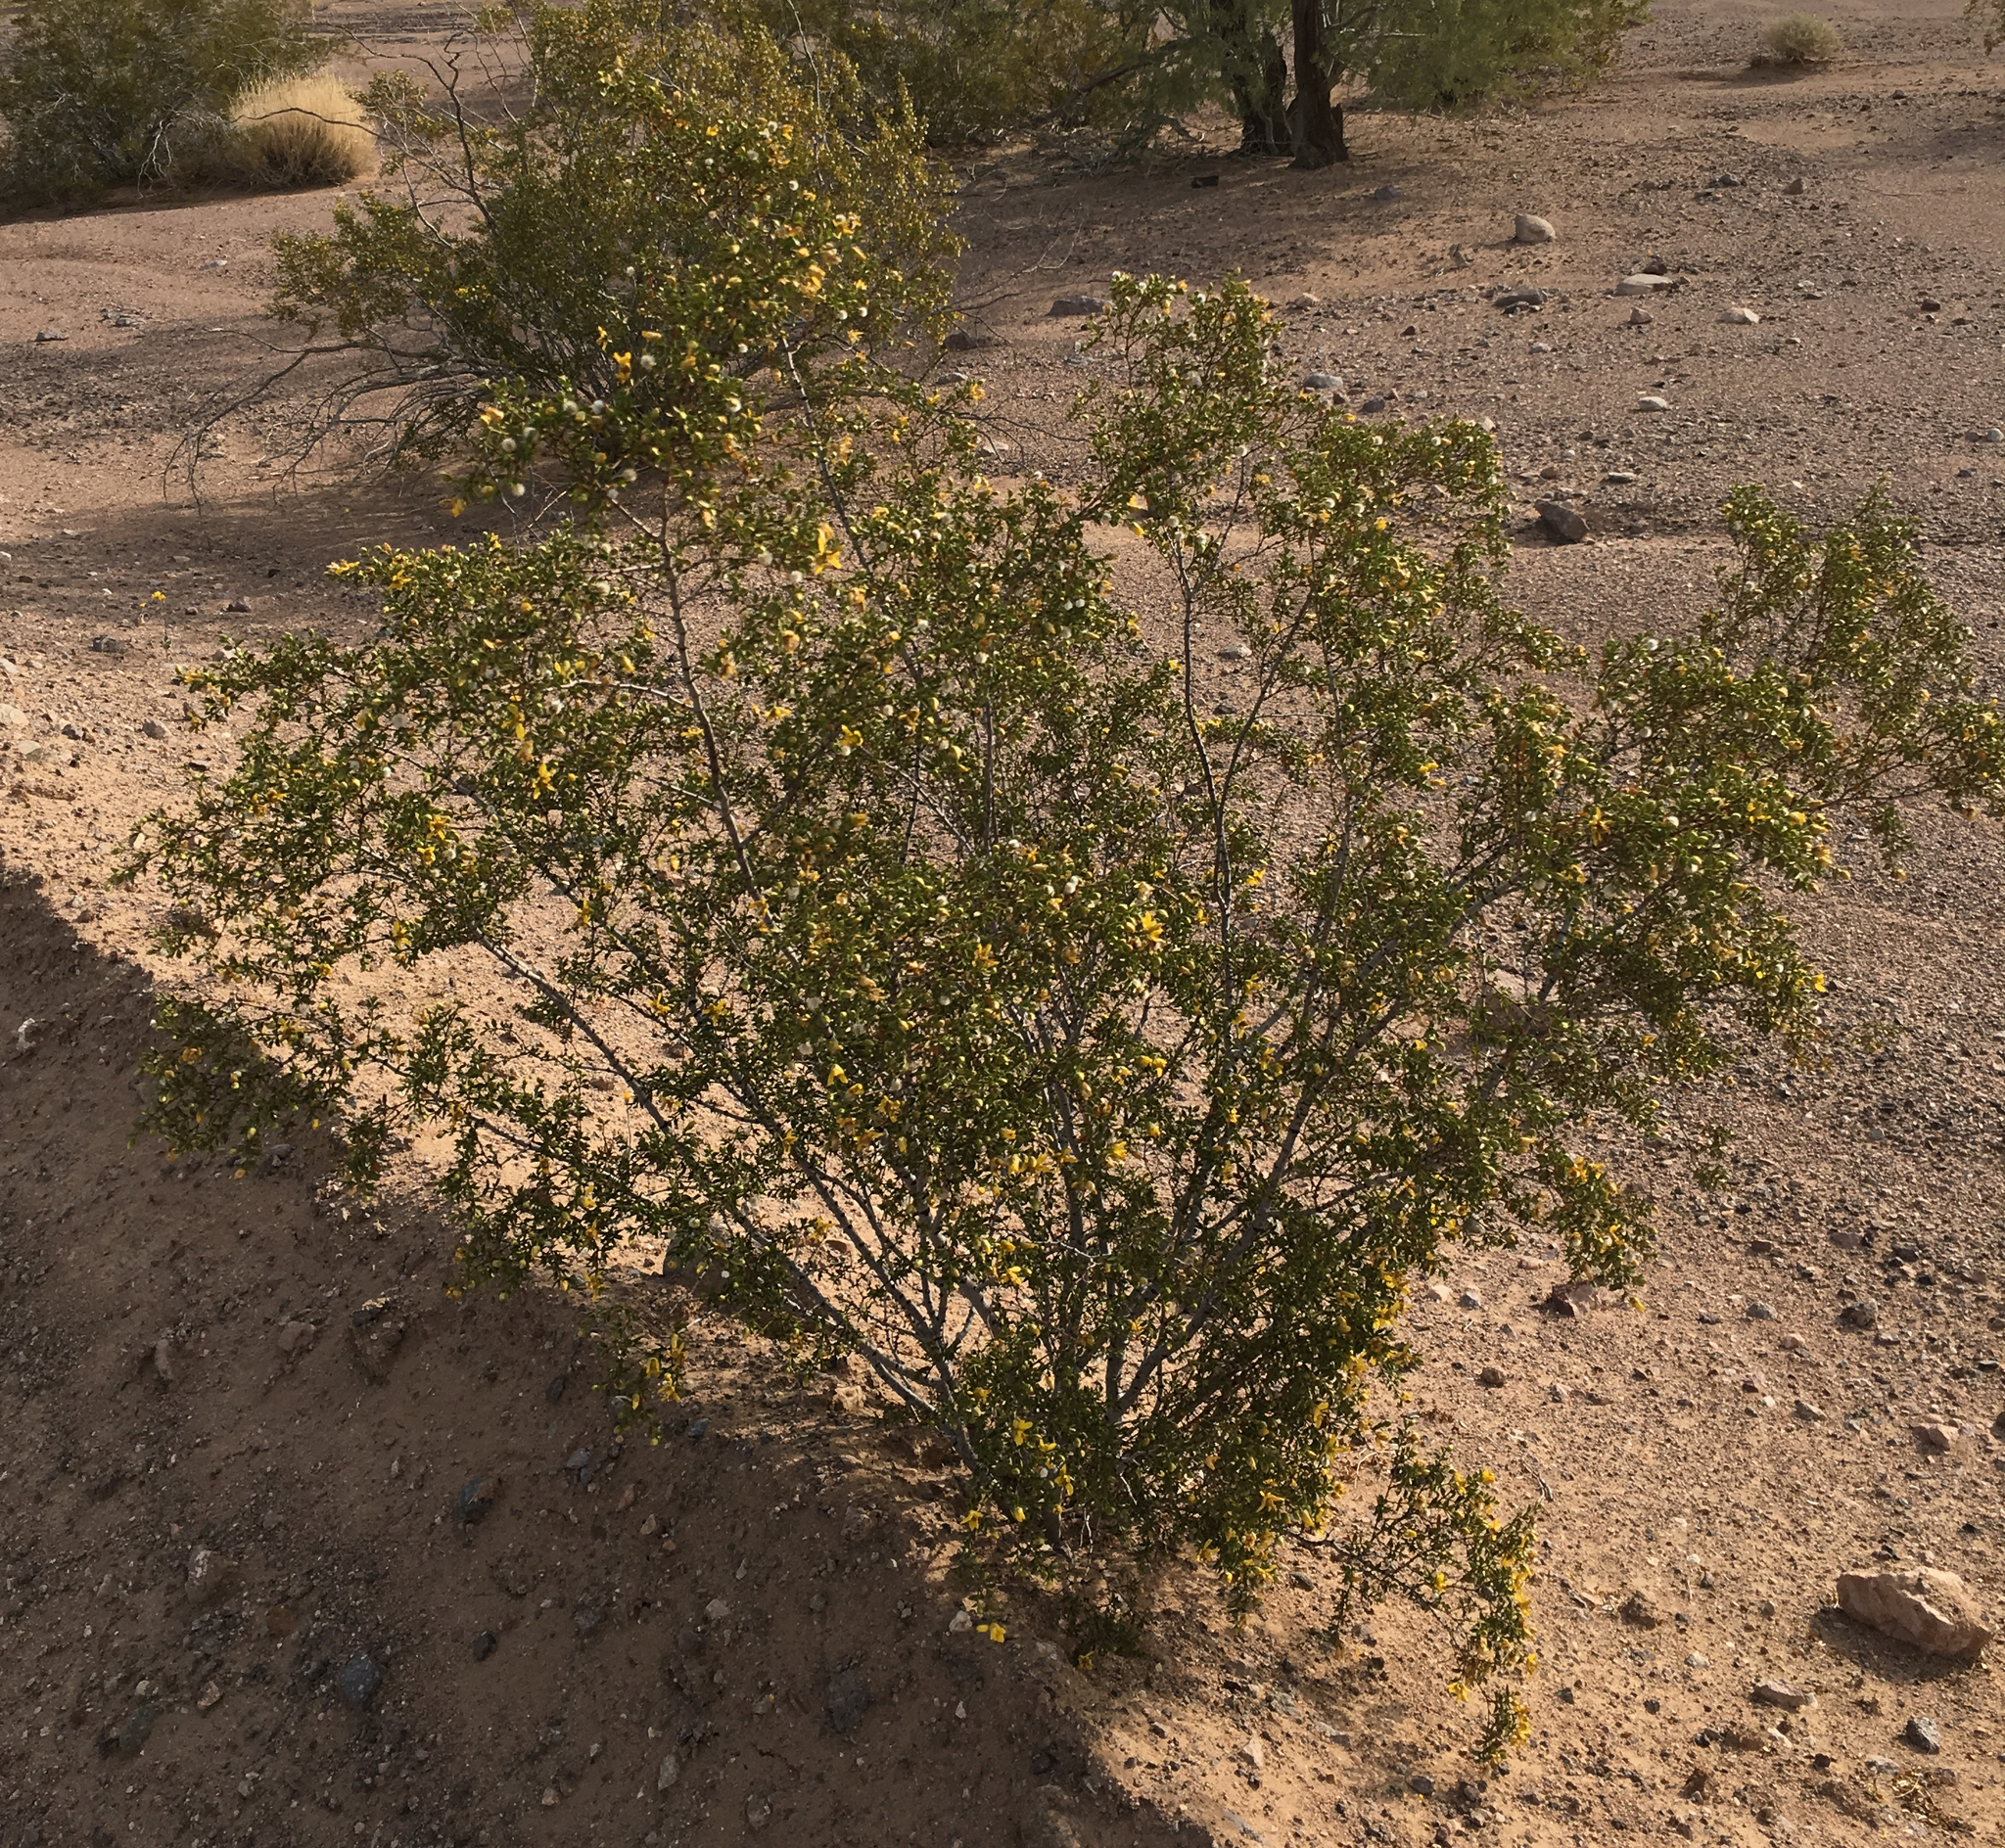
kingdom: Plantae
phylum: Tracheophyta
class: Magnoliopsida
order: Zygophyllales
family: Zygophyllaceae
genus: Larrea
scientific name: Larrea tridentata
